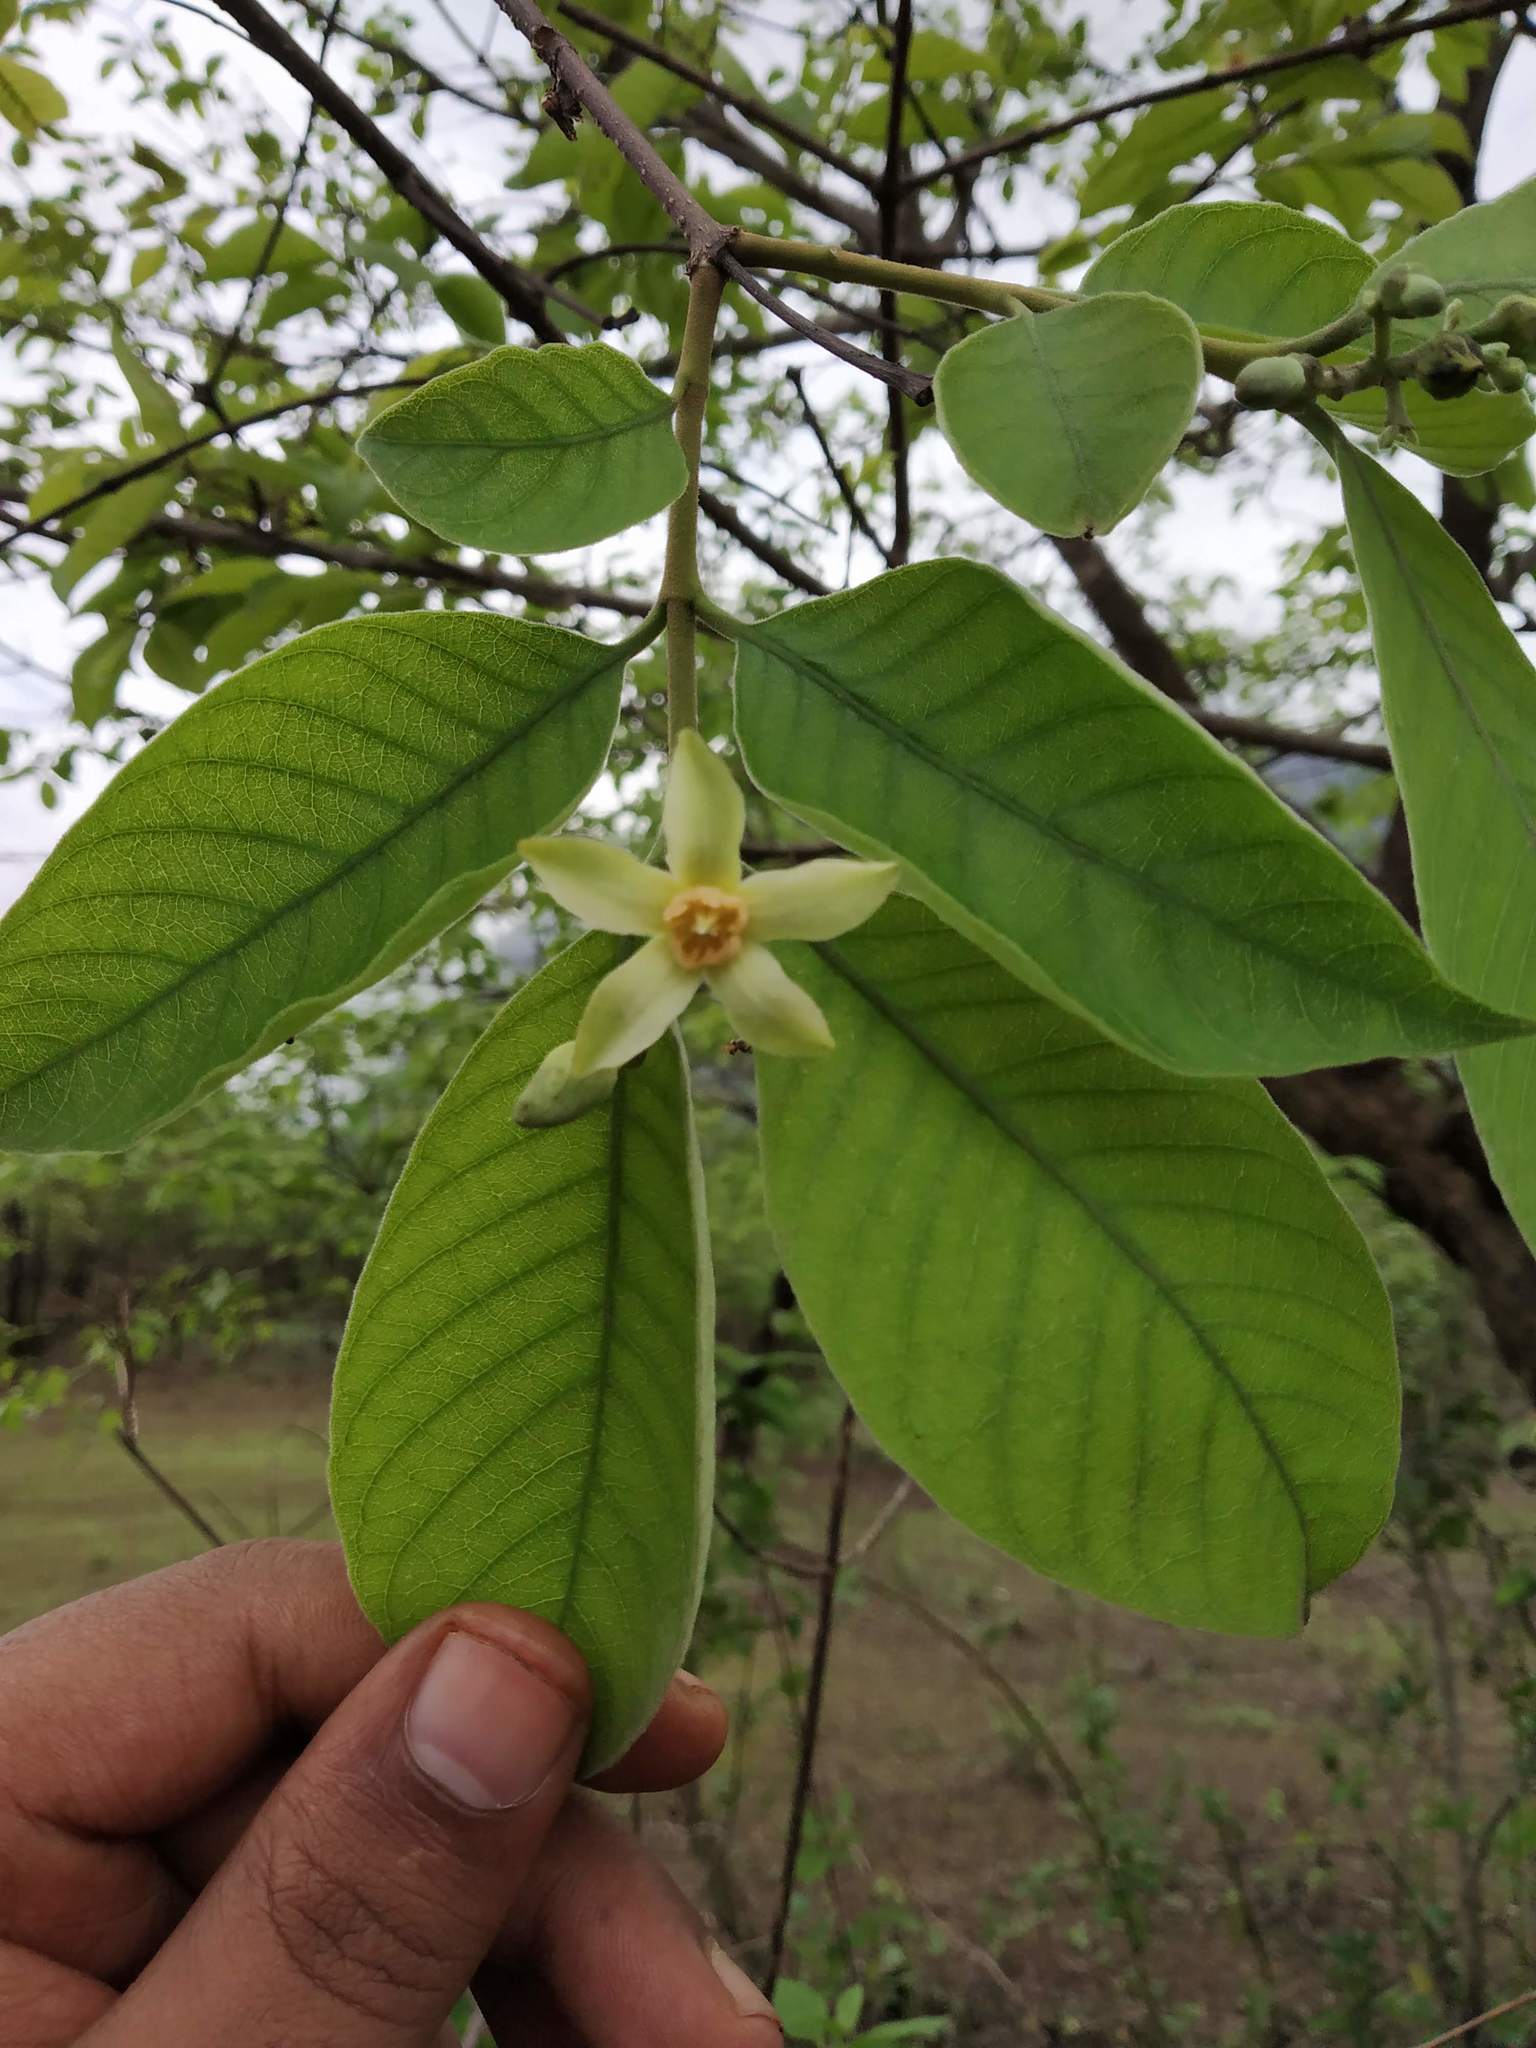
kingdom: Plantae
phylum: Tracheophyta
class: Magnoliopsida
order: Gentianales
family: Apocynaceae
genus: Wrightia
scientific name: Wrightia arborea
